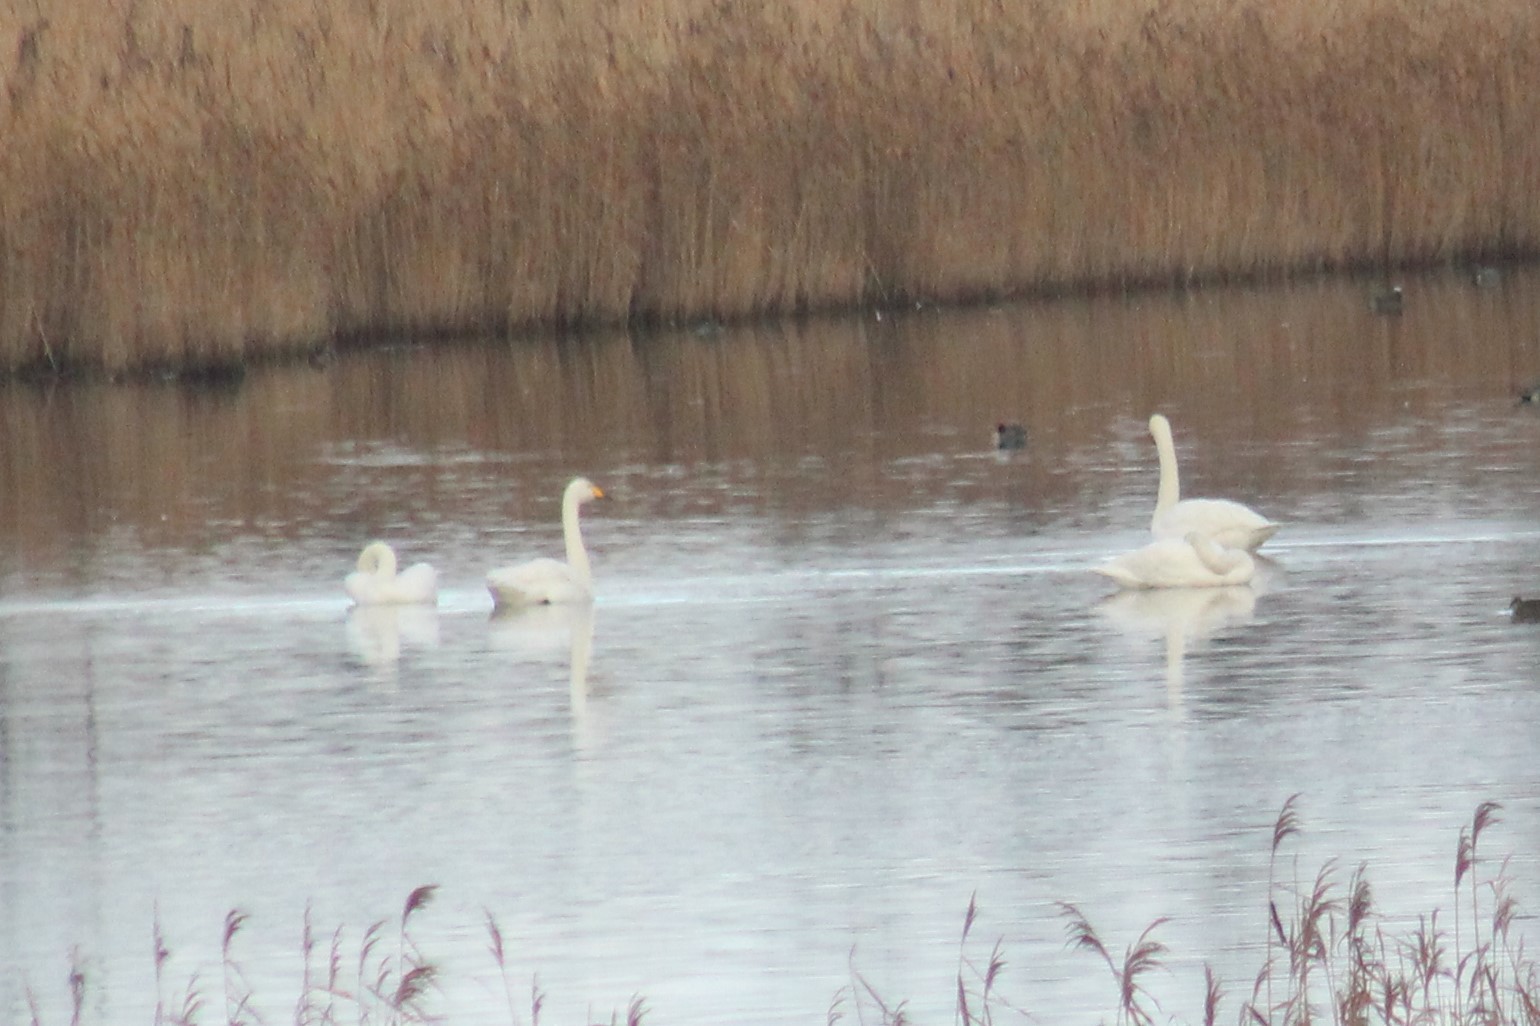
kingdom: Animalia
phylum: Chordata
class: Aves
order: Anseriformes
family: Anatidae
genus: Cygnus
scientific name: Cygnus cygnus
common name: Whooper swan
